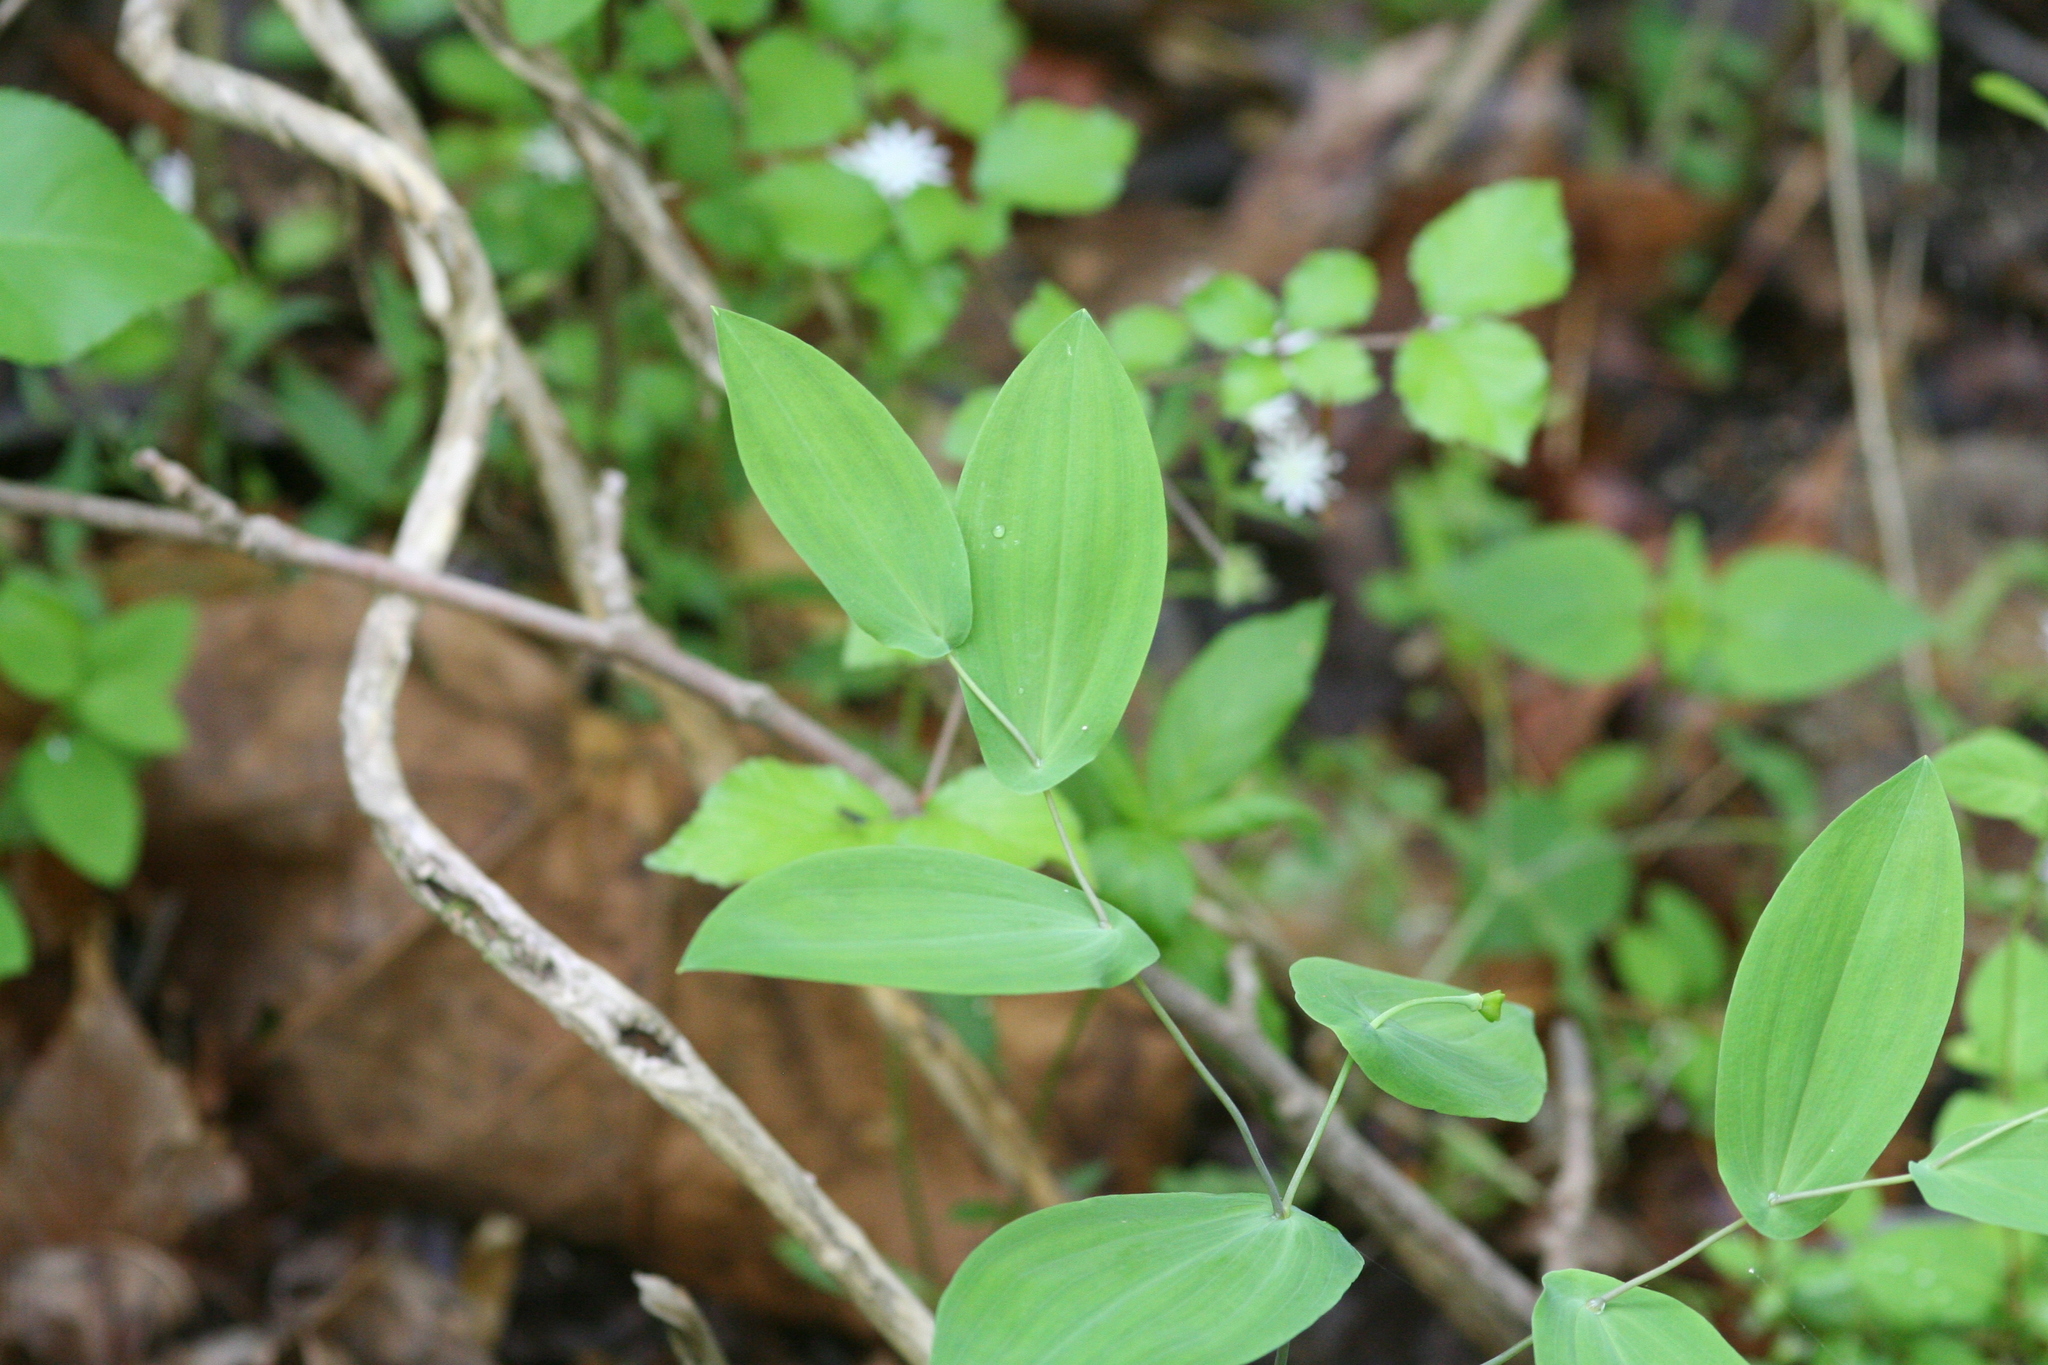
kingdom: Plantae
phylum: Tracheophyta
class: Liliopsida
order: Liliales
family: Colchicaceae
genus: Uvularia
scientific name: Uvularia perfoliata
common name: Perfoliate bellwort
